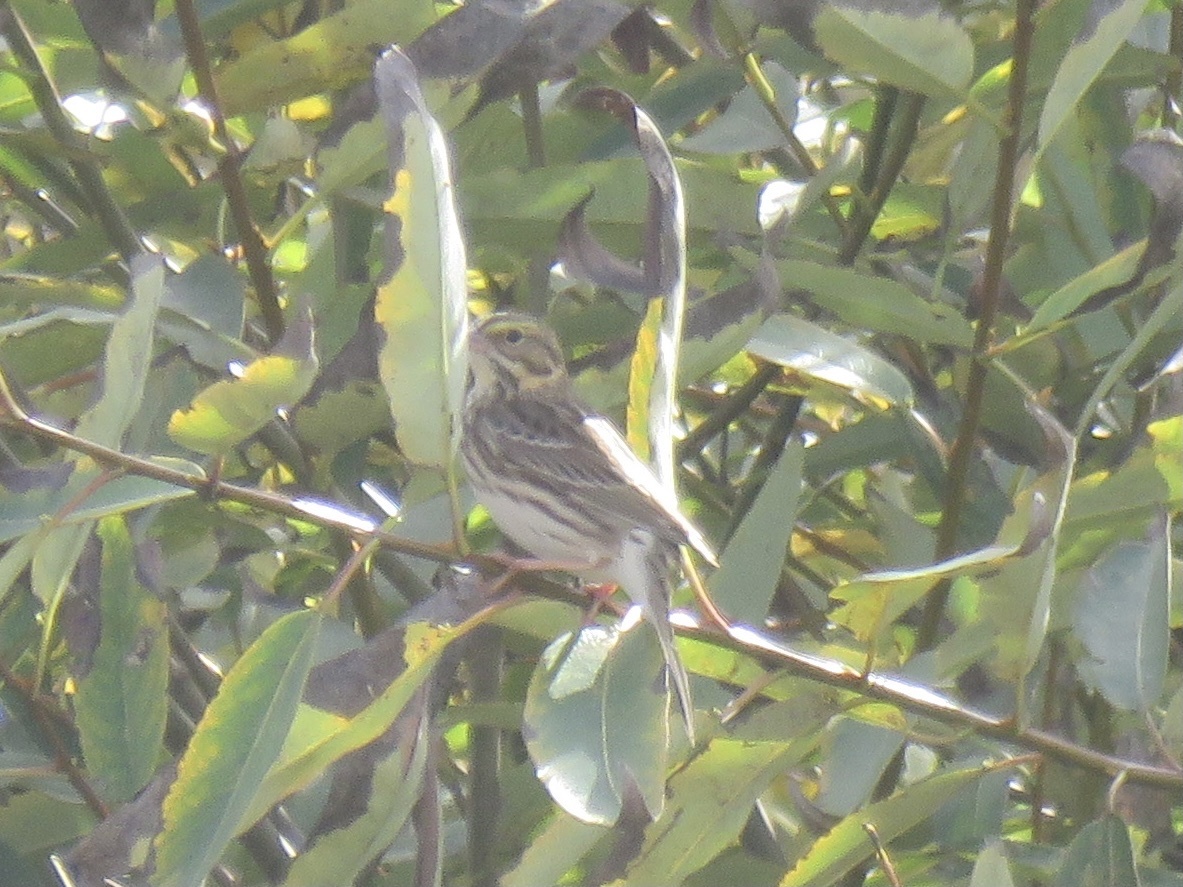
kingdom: Animalia
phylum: Chordata
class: Aves
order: Passeriformes
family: Passerellidae
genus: Passerculus
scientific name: Passerculus sandwichensis
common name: Savannah sparrow
